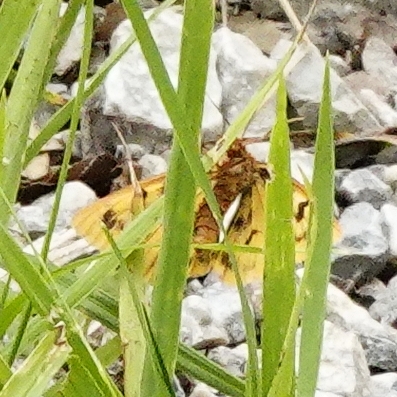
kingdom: Animalia
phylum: Arthropoda
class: Insecta
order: Lepidoptera
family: Erebidae
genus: Diacrisia
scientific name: Diacrisia sannio
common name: Clouded buff
